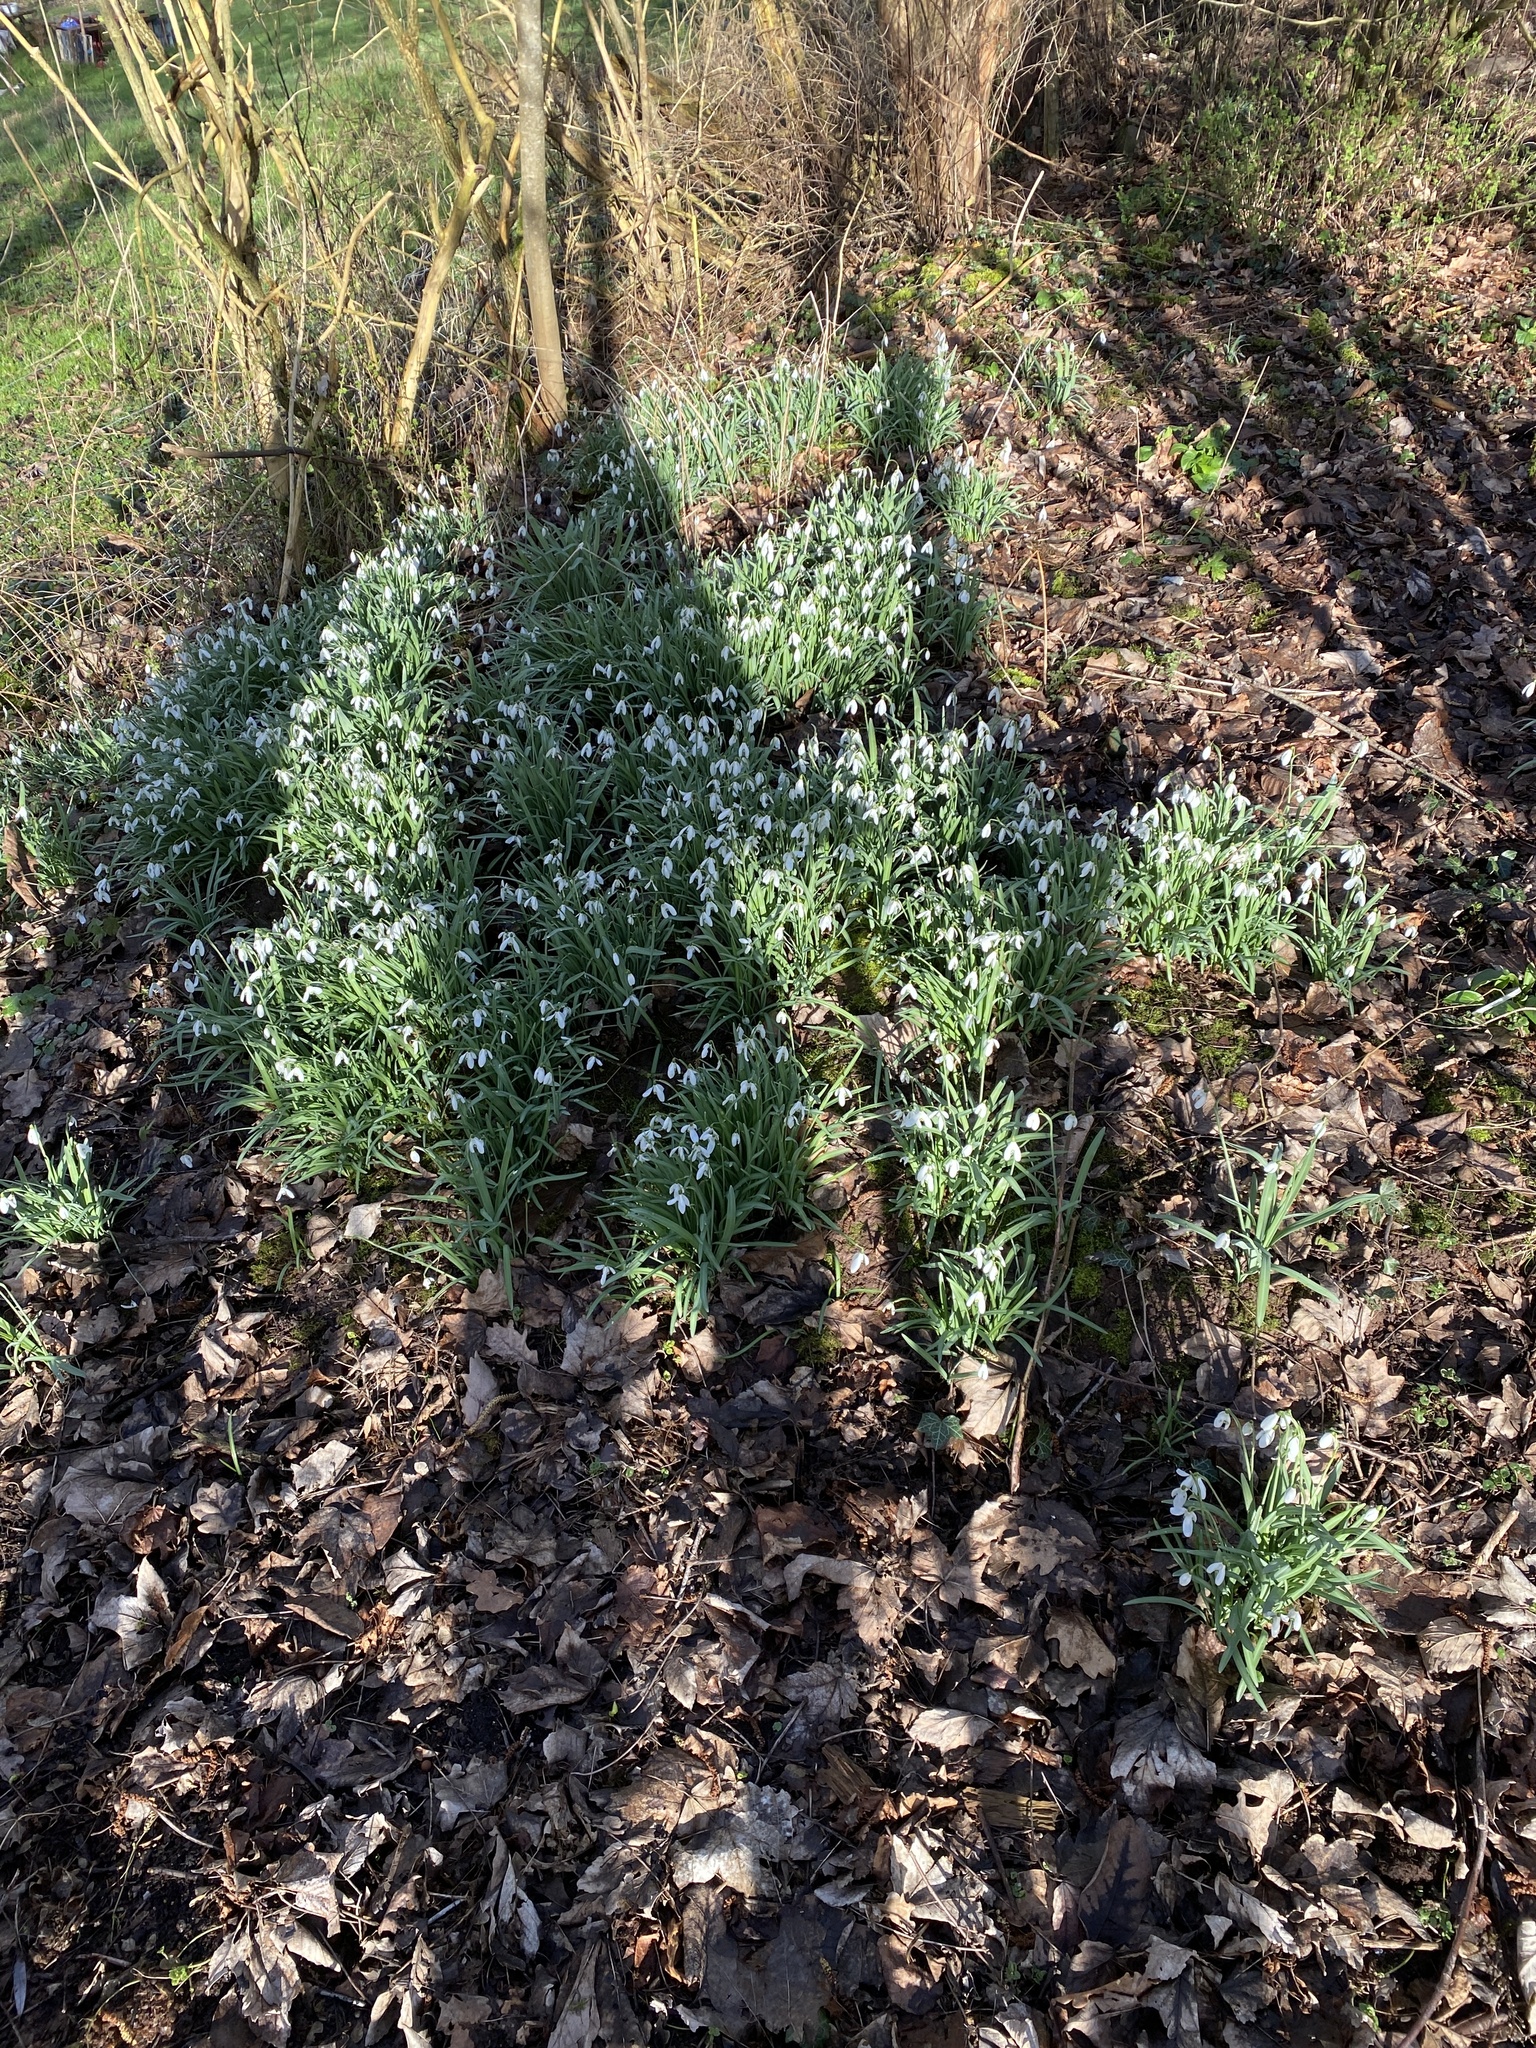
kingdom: Plantae
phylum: Tracheophyta
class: Liliopsida
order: Asparagales
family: Amaryllidaceae
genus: Galanthus
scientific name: Galanthus nivalis
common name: Snowdrop
